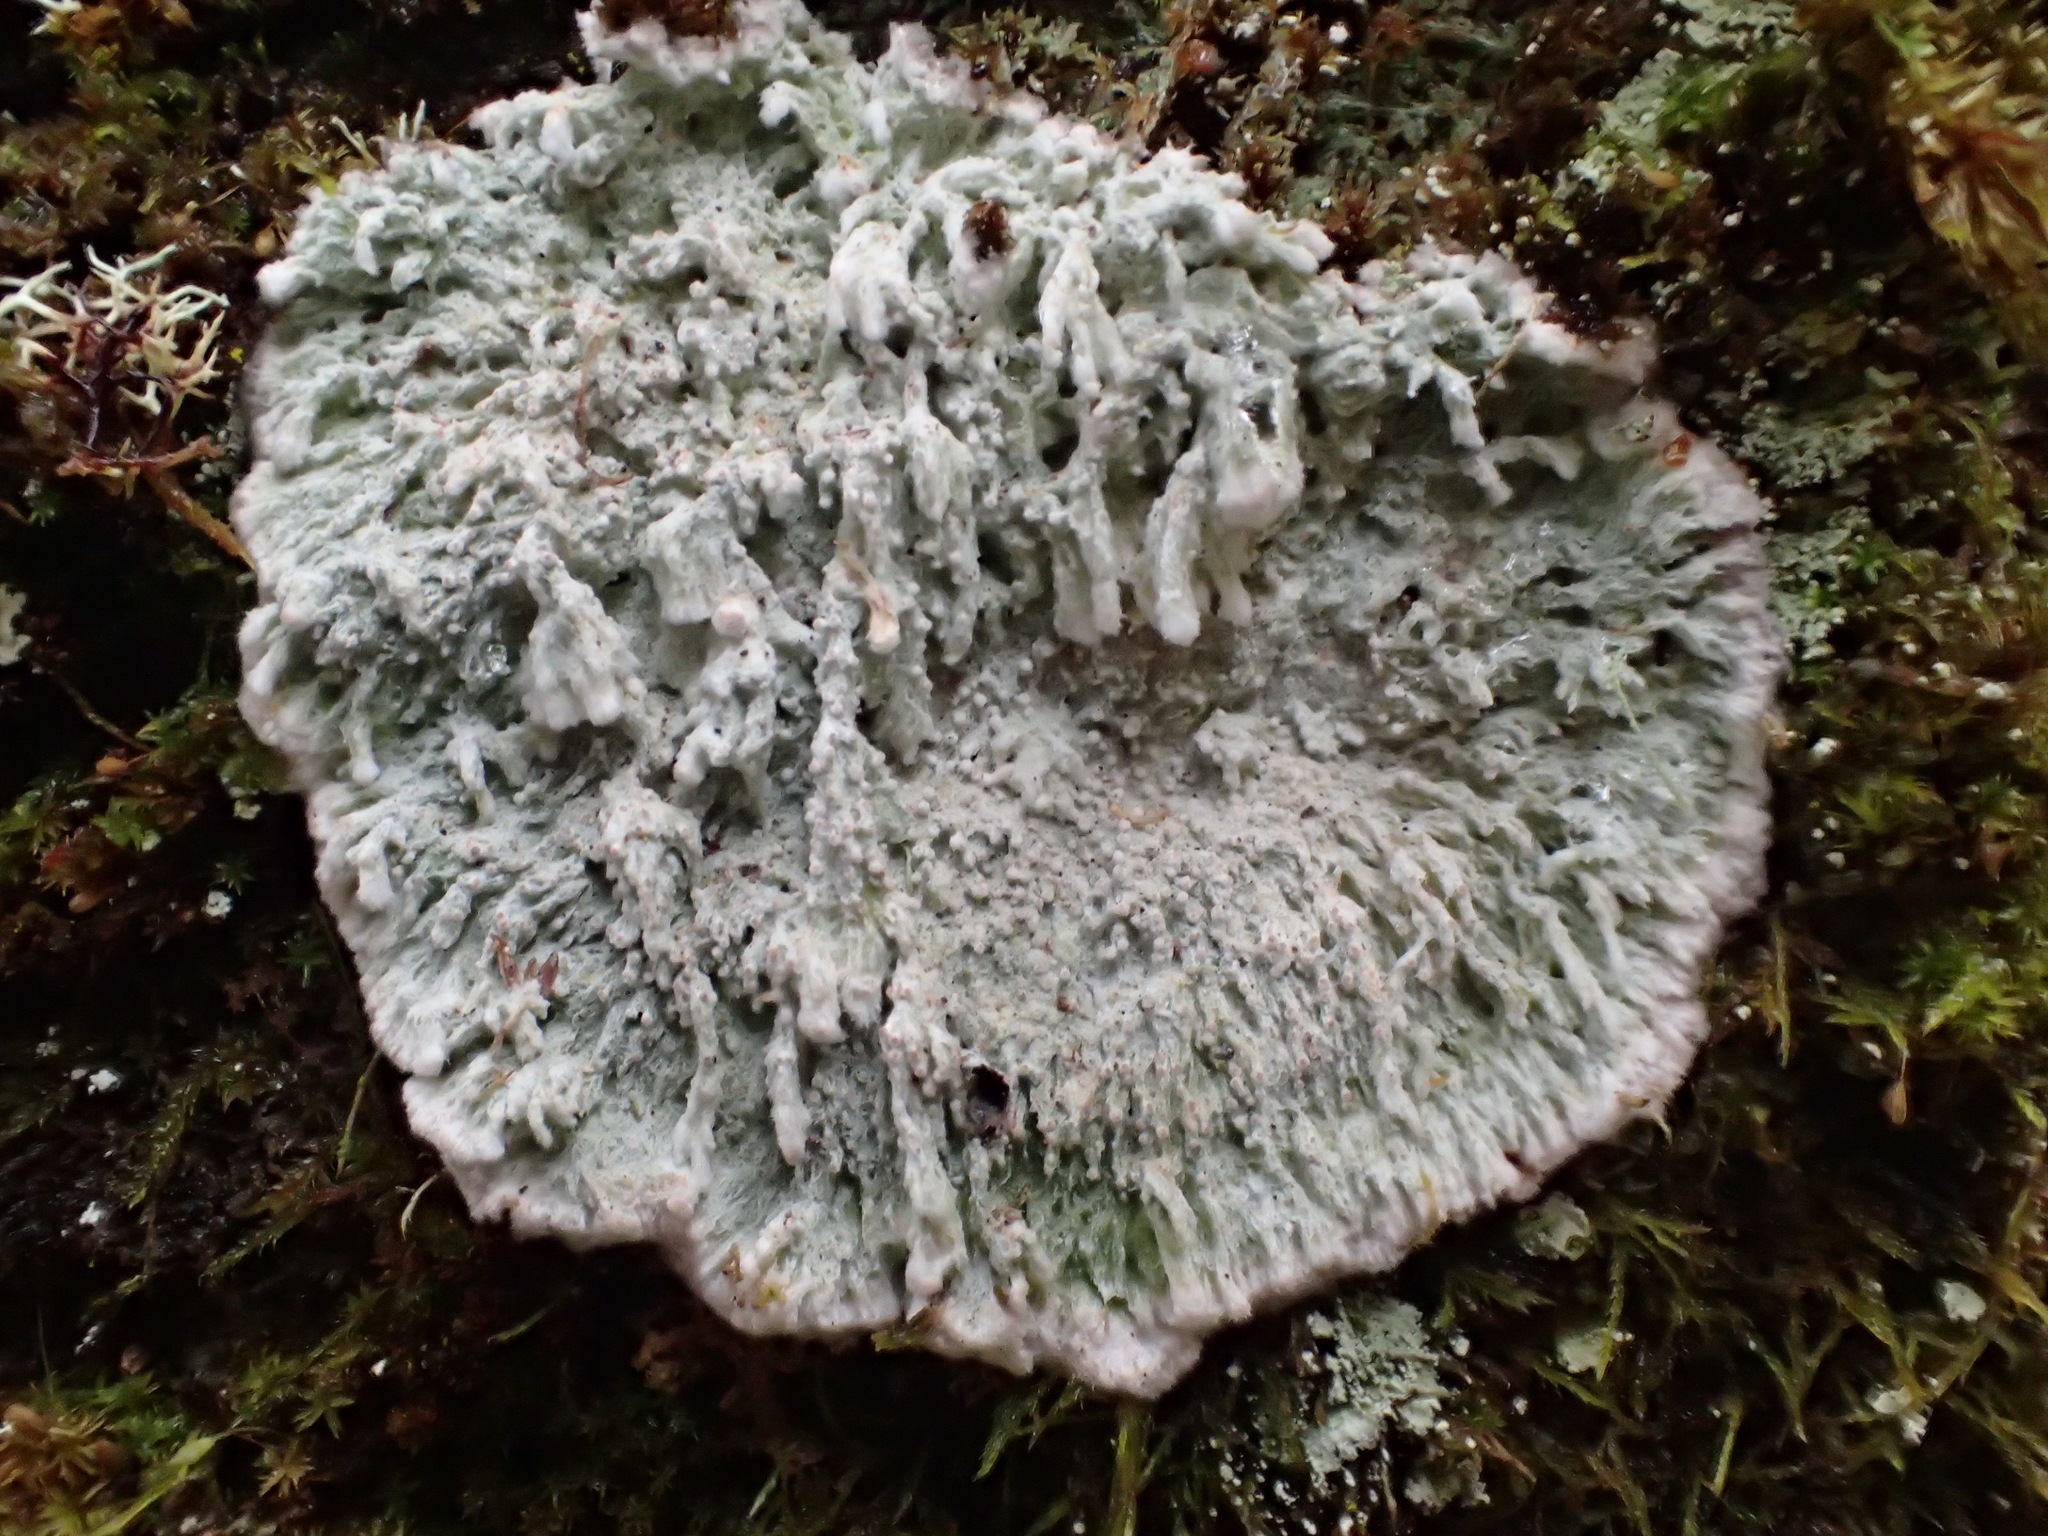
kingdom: Fungi
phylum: Ascomycota
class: Arthoniomycetes
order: Arthoniales
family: Roccellaceae
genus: Lecanactis
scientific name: Lecanactis mollis
